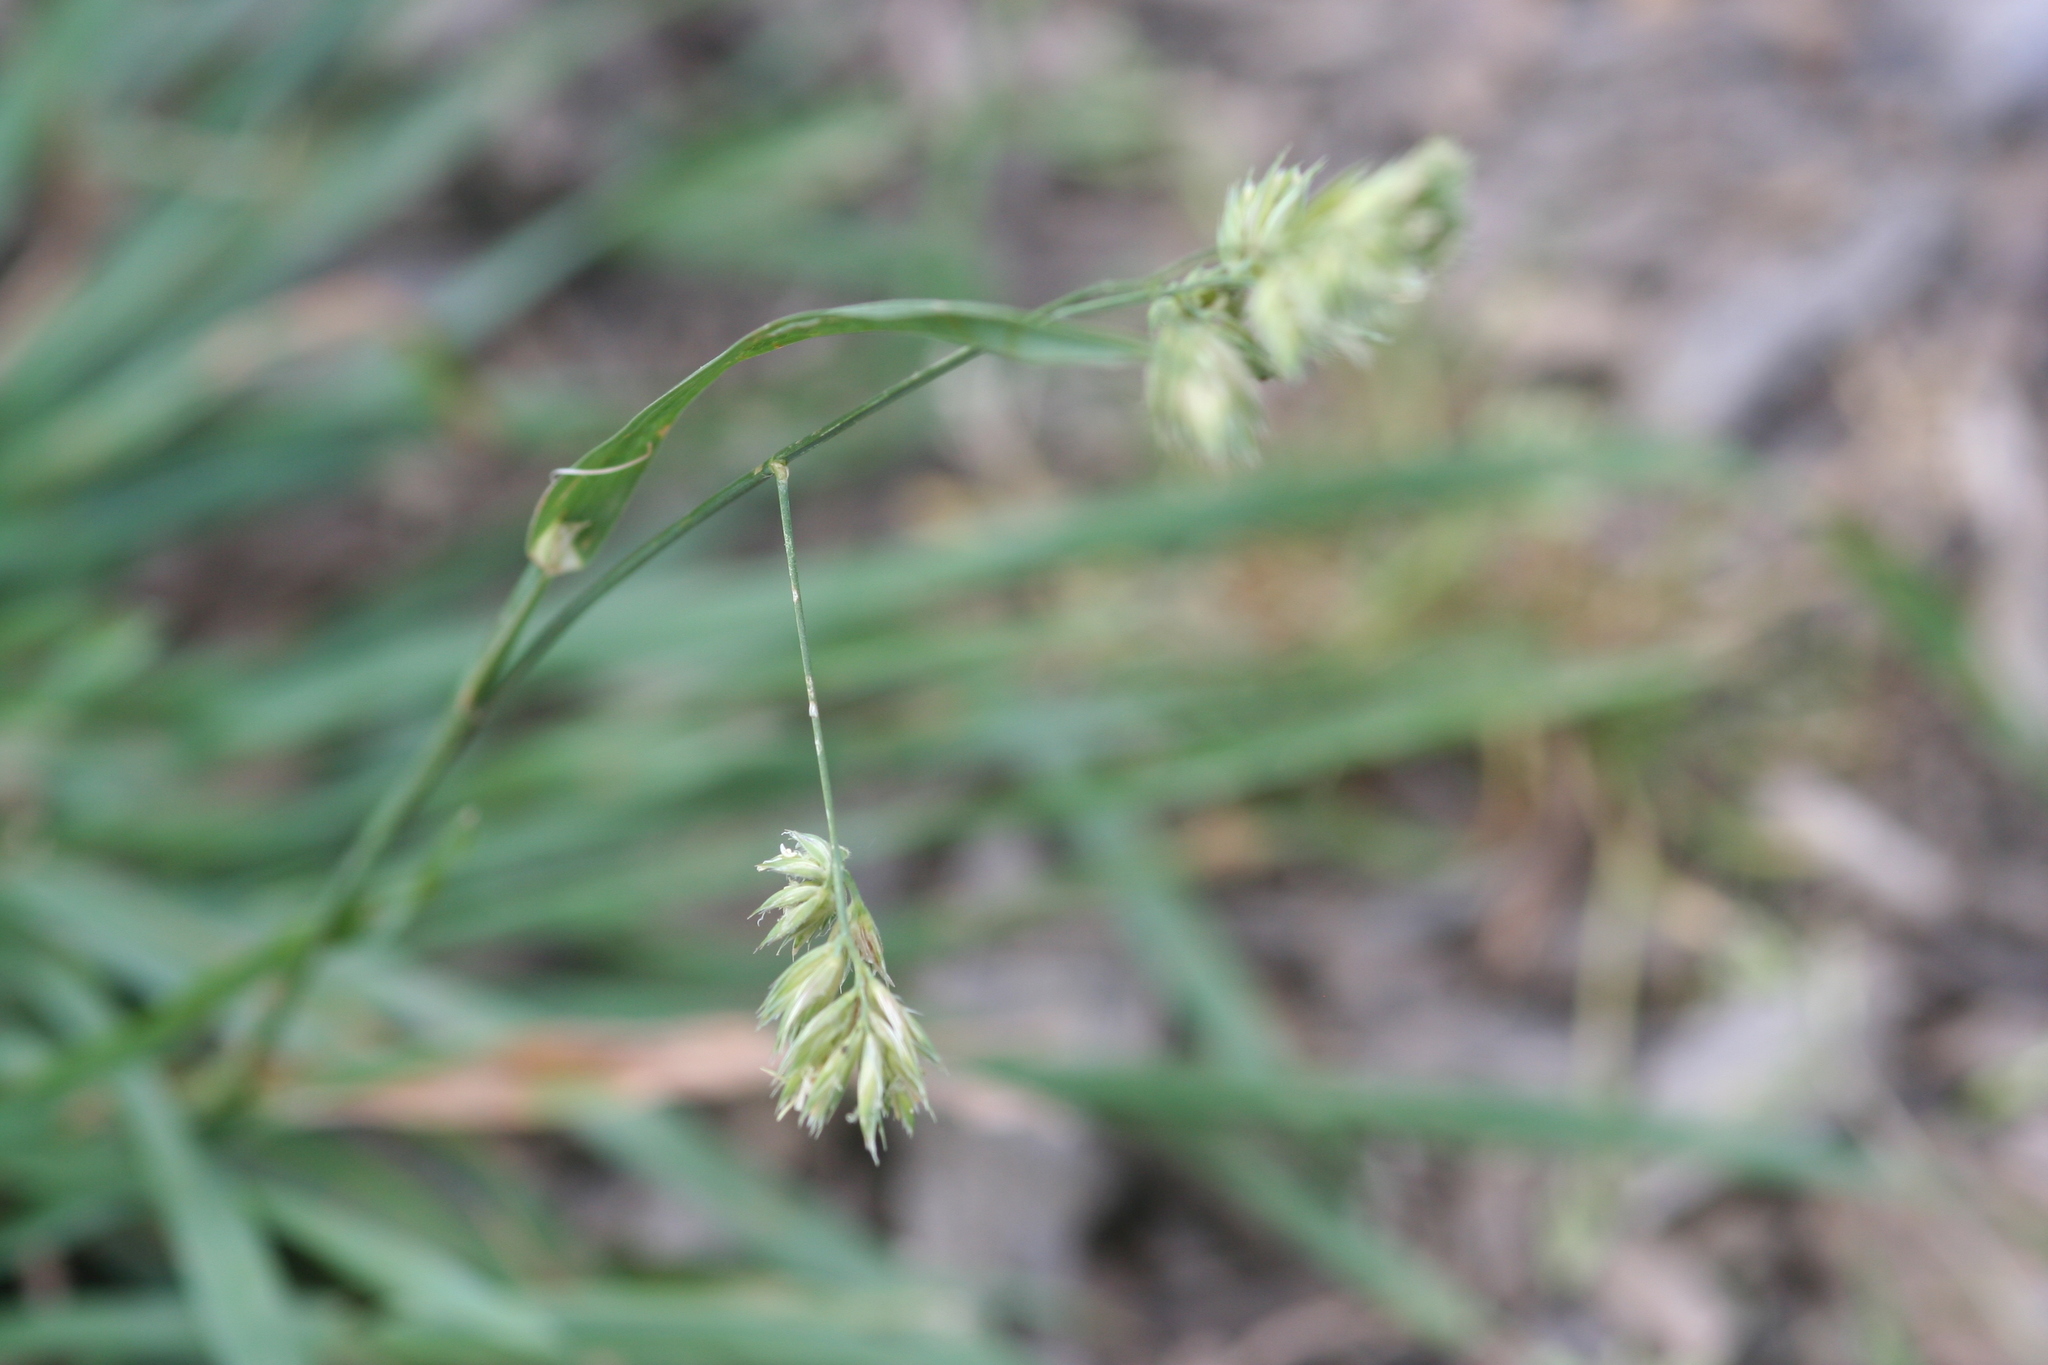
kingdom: Plantae
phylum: Tracheophyta
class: Liliopsida
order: Poales
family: Poaceae
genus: Dactylis
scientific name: Dactylis glomerata
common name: Orchardgrass
